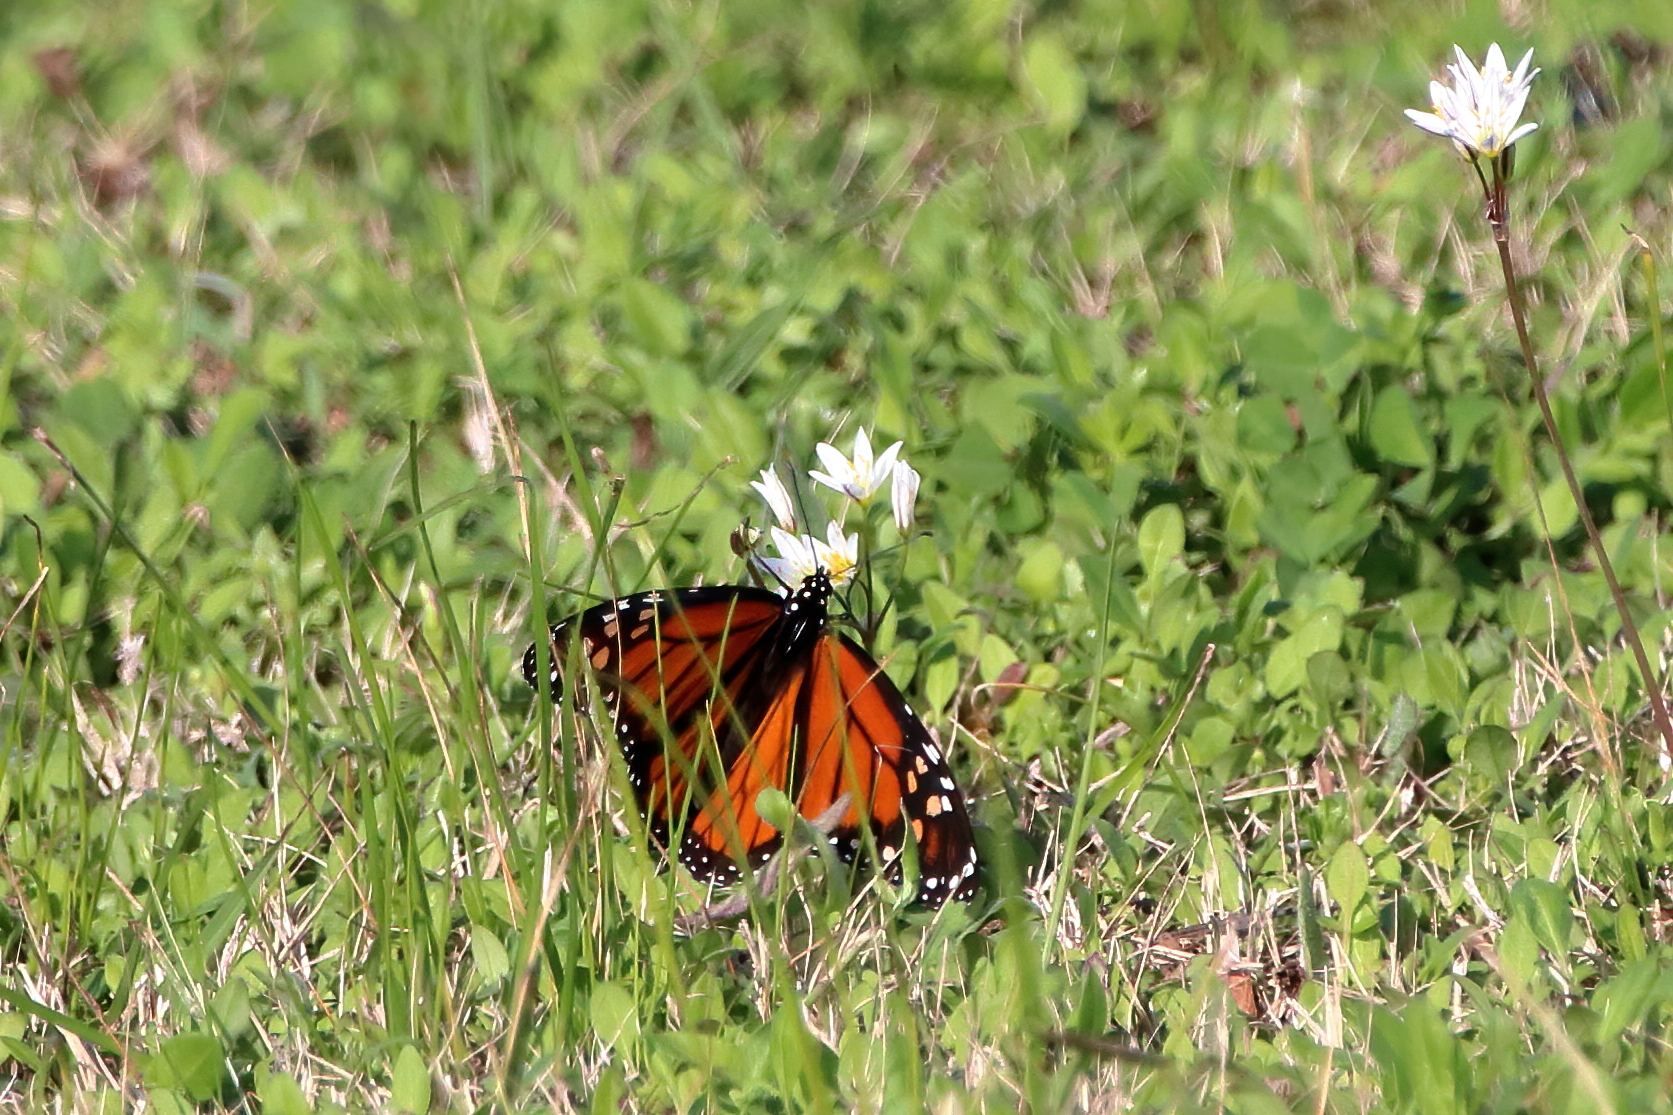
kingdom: Animalia
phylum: Arthropoda
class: Insecta
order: Lepidoptera
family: Nymphalidae
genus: Danaus
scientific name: Danaus plexippus
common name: Monarch
